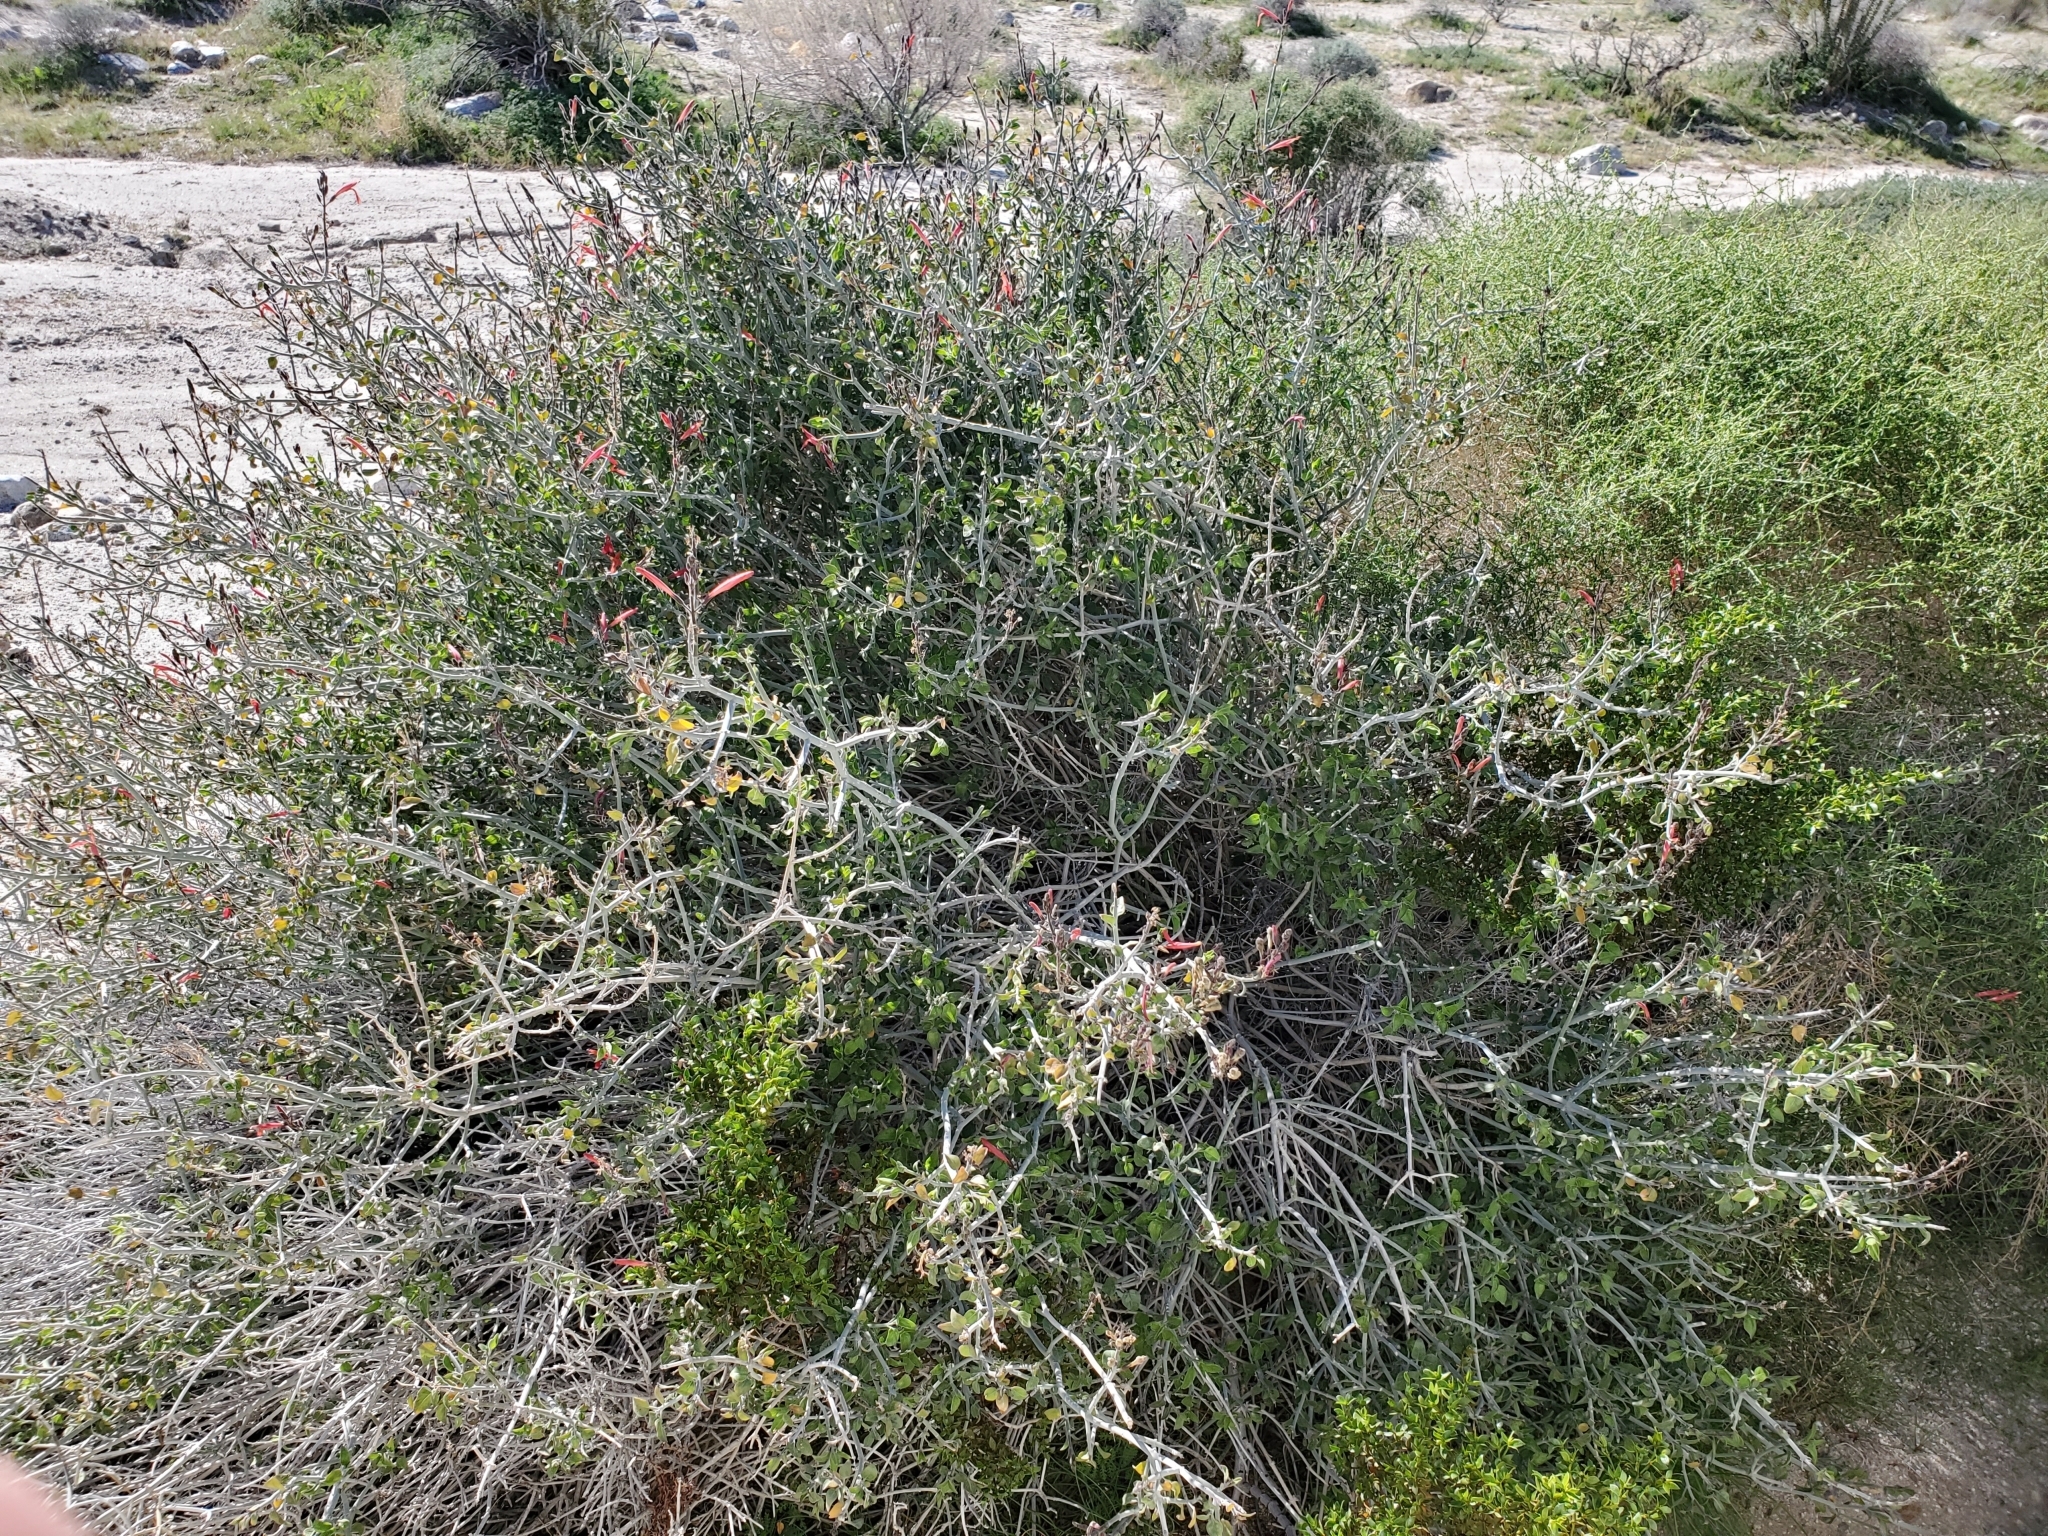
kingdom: Plantae
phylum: Tracheophyta
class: Magnoliopsida
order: Lamiales
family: Acanthaceae
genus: Justicia
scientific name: Justicia californica
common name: Chuparosa-honeysuckle
